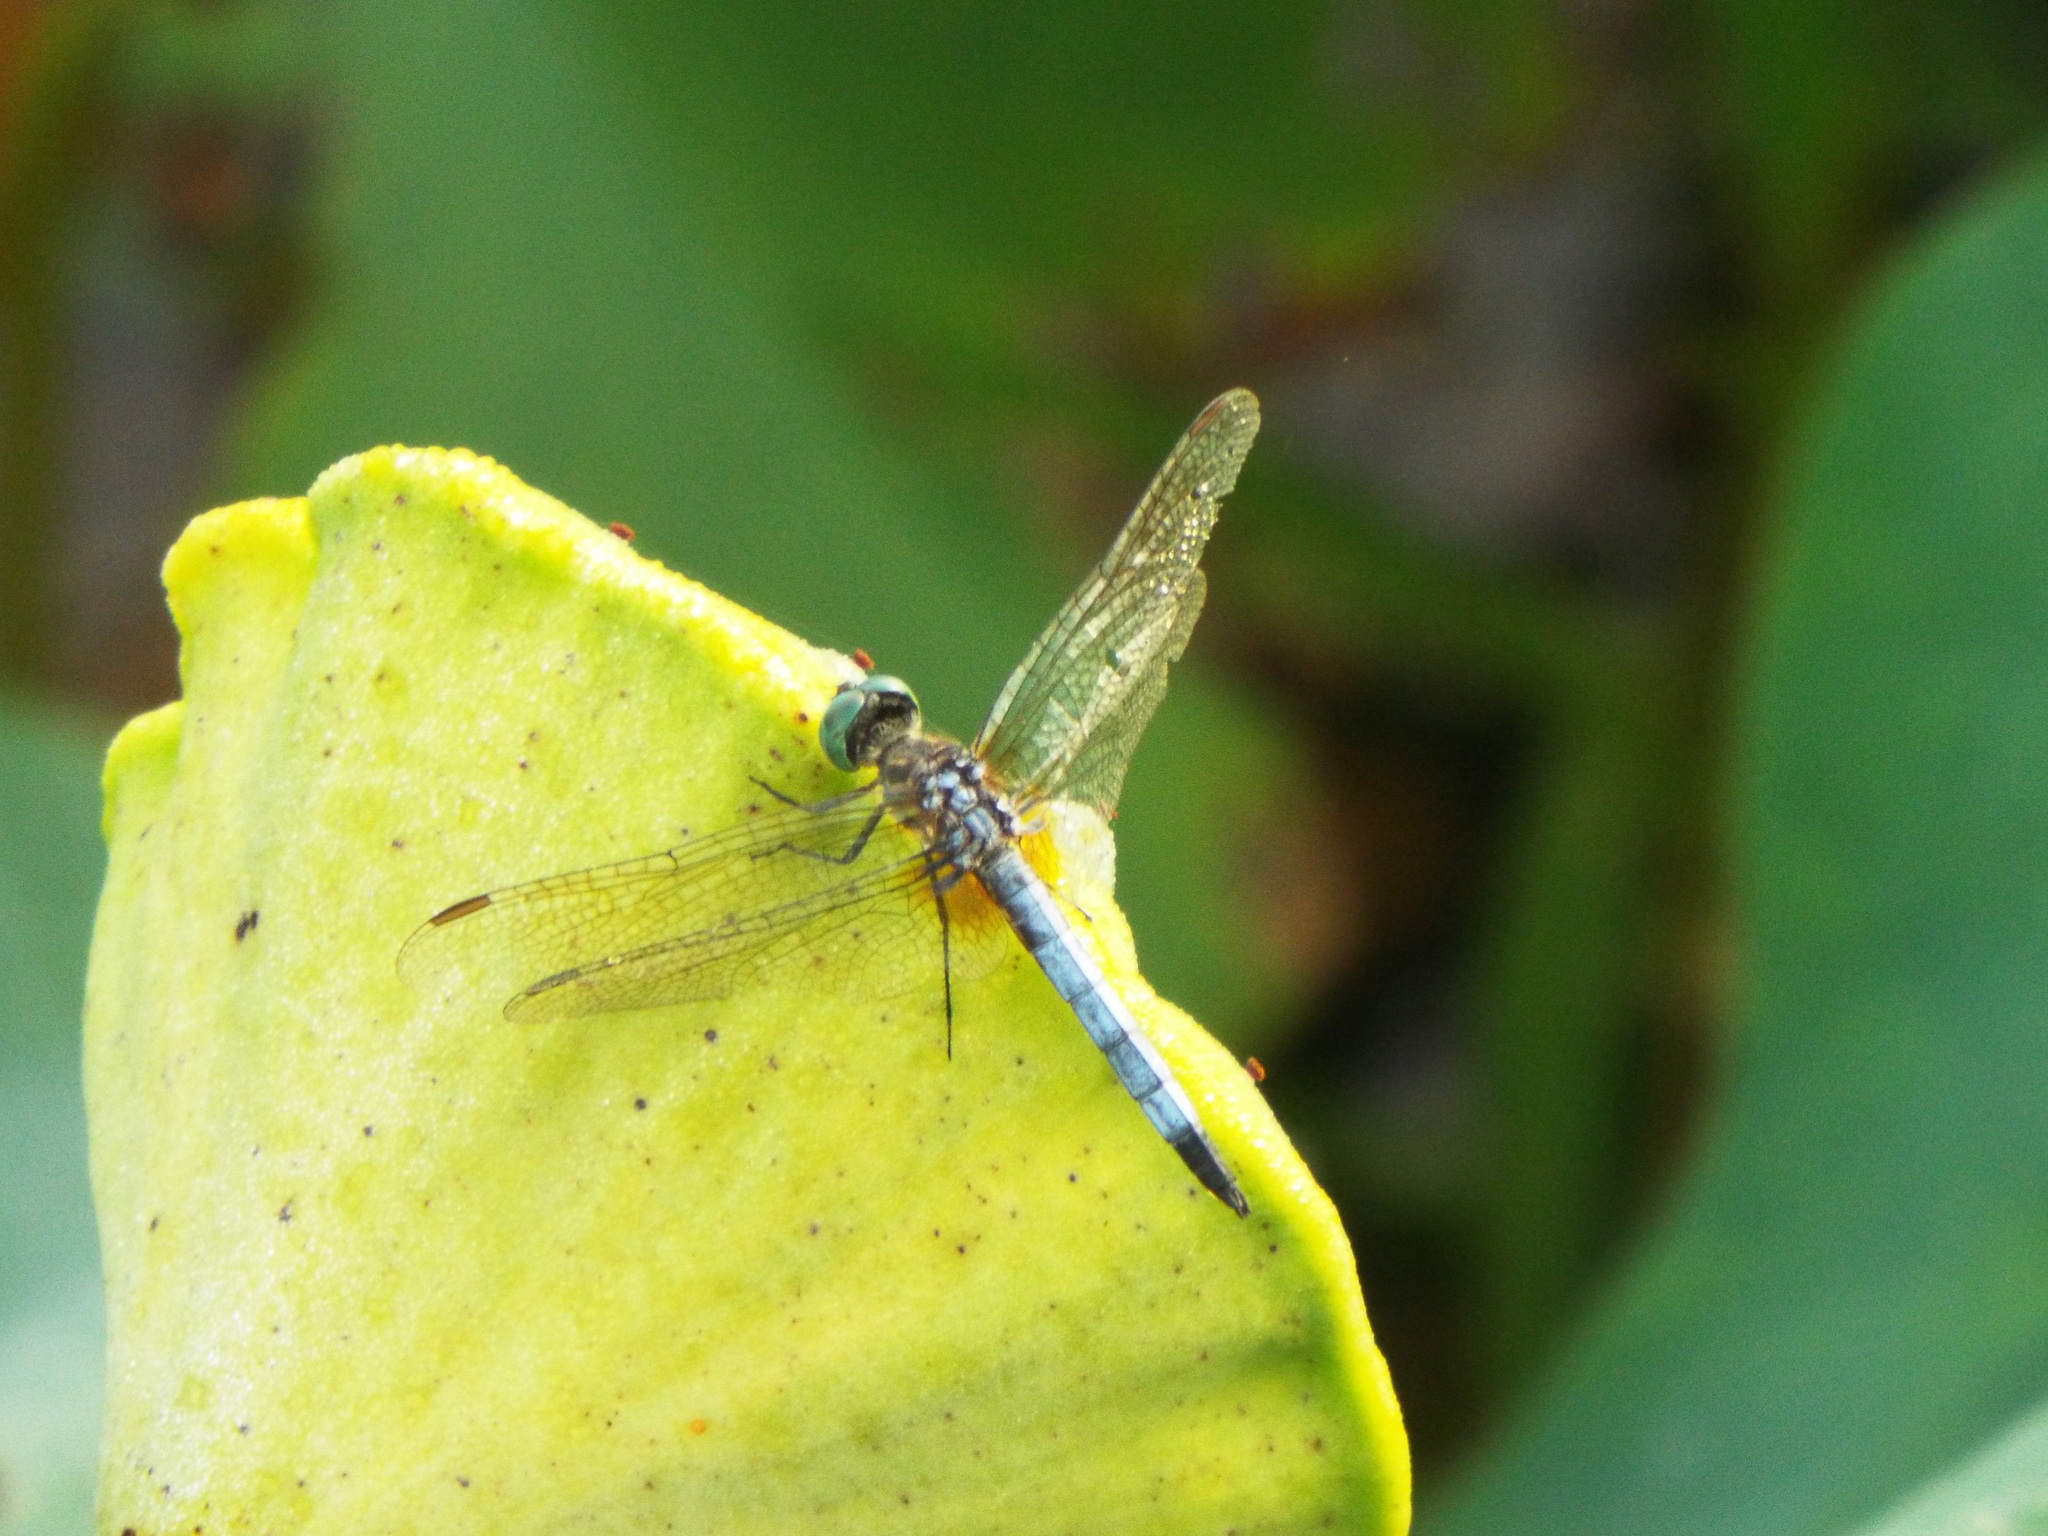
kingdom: Animalia
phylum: Arthropoda
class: Insecta
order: Odonata
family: Libellulidae
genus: Pachydiplax
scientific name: Pachydiplax longipennis
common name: Blue dasher
